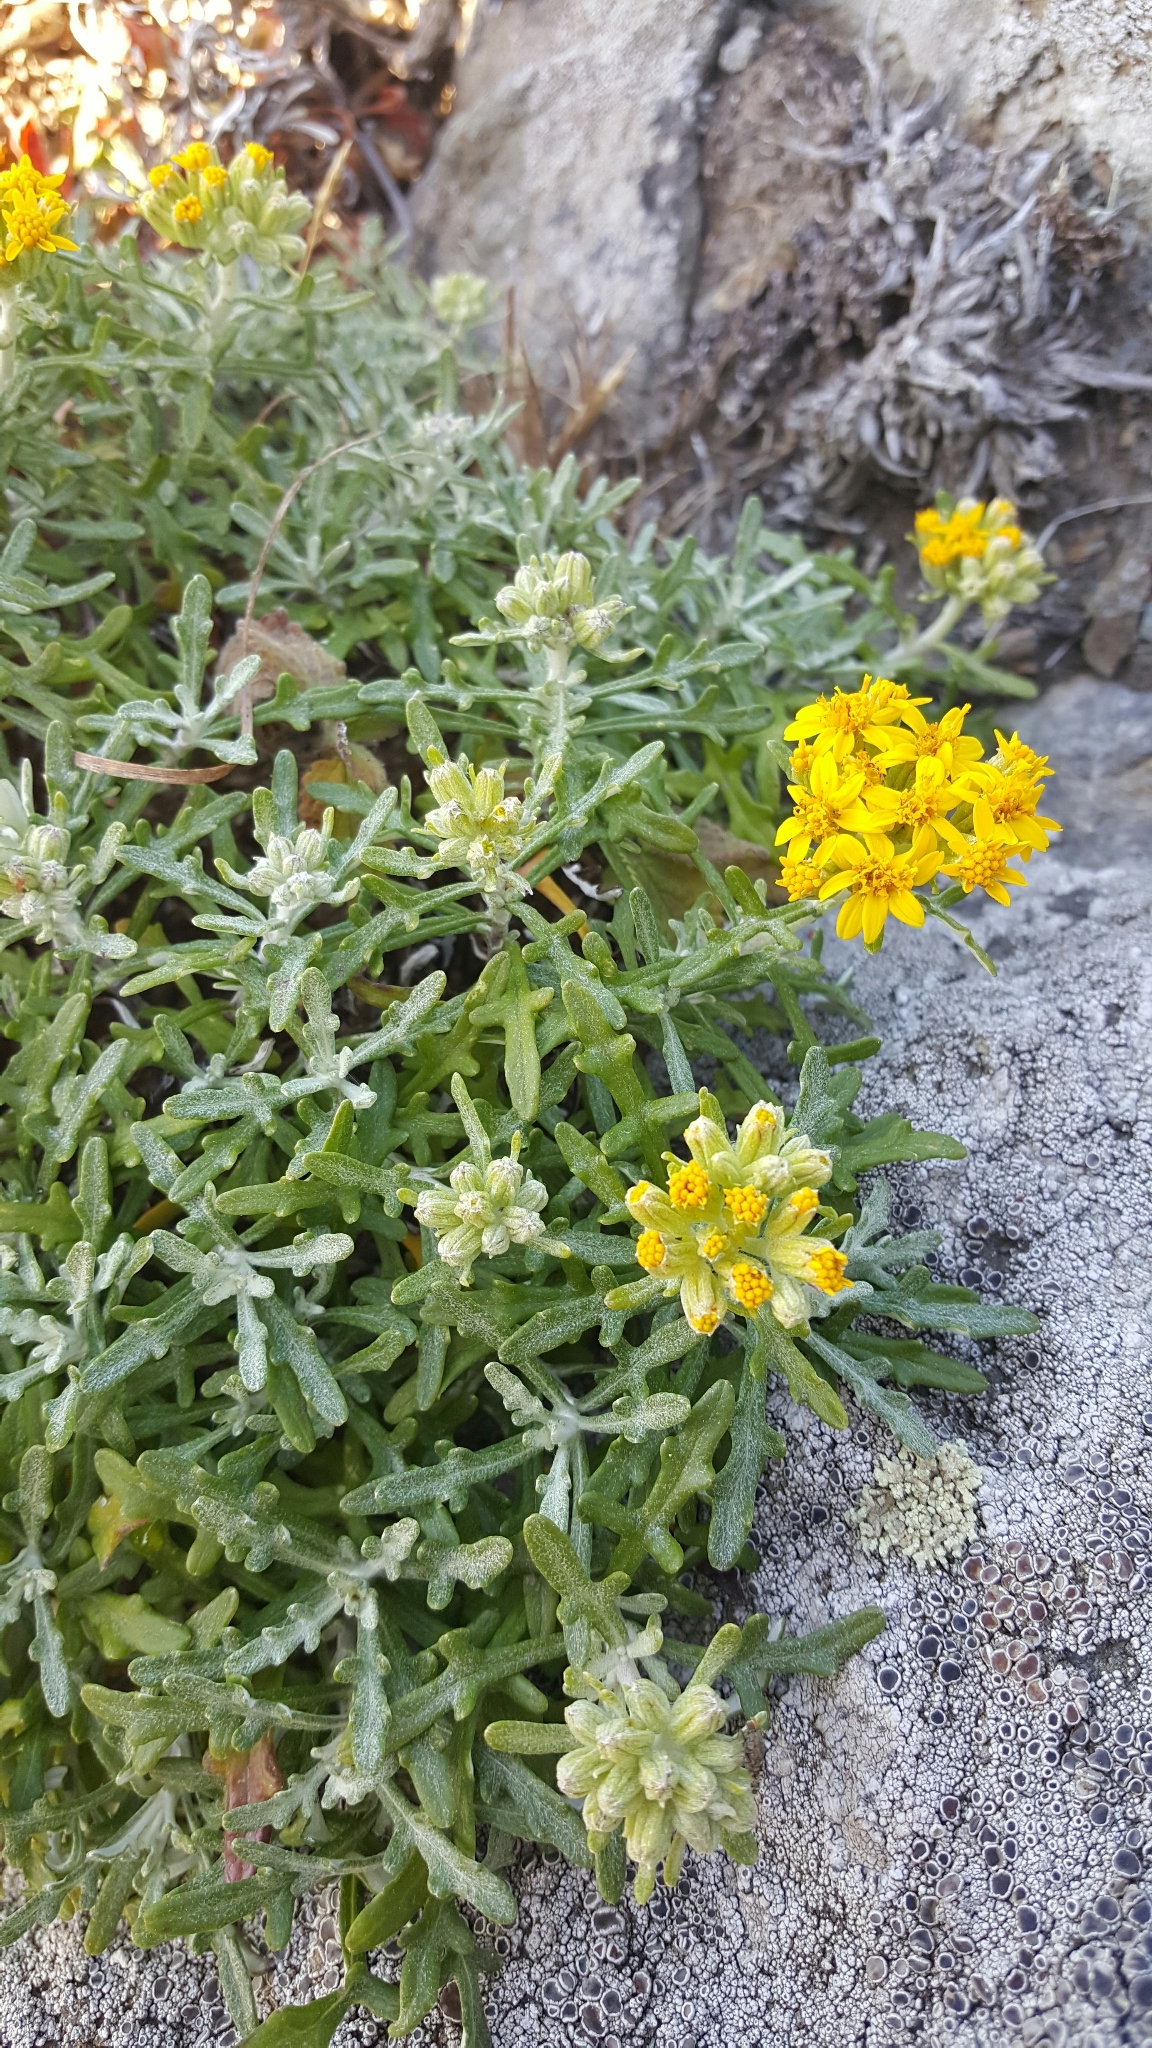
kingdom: Plantae
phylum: Tracheophyta
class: Magnoliopsida
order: Asterales
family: Asteraceae
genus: Eriophyllum
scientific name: Eriophyllum staechadifolium
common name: Lizardtail
